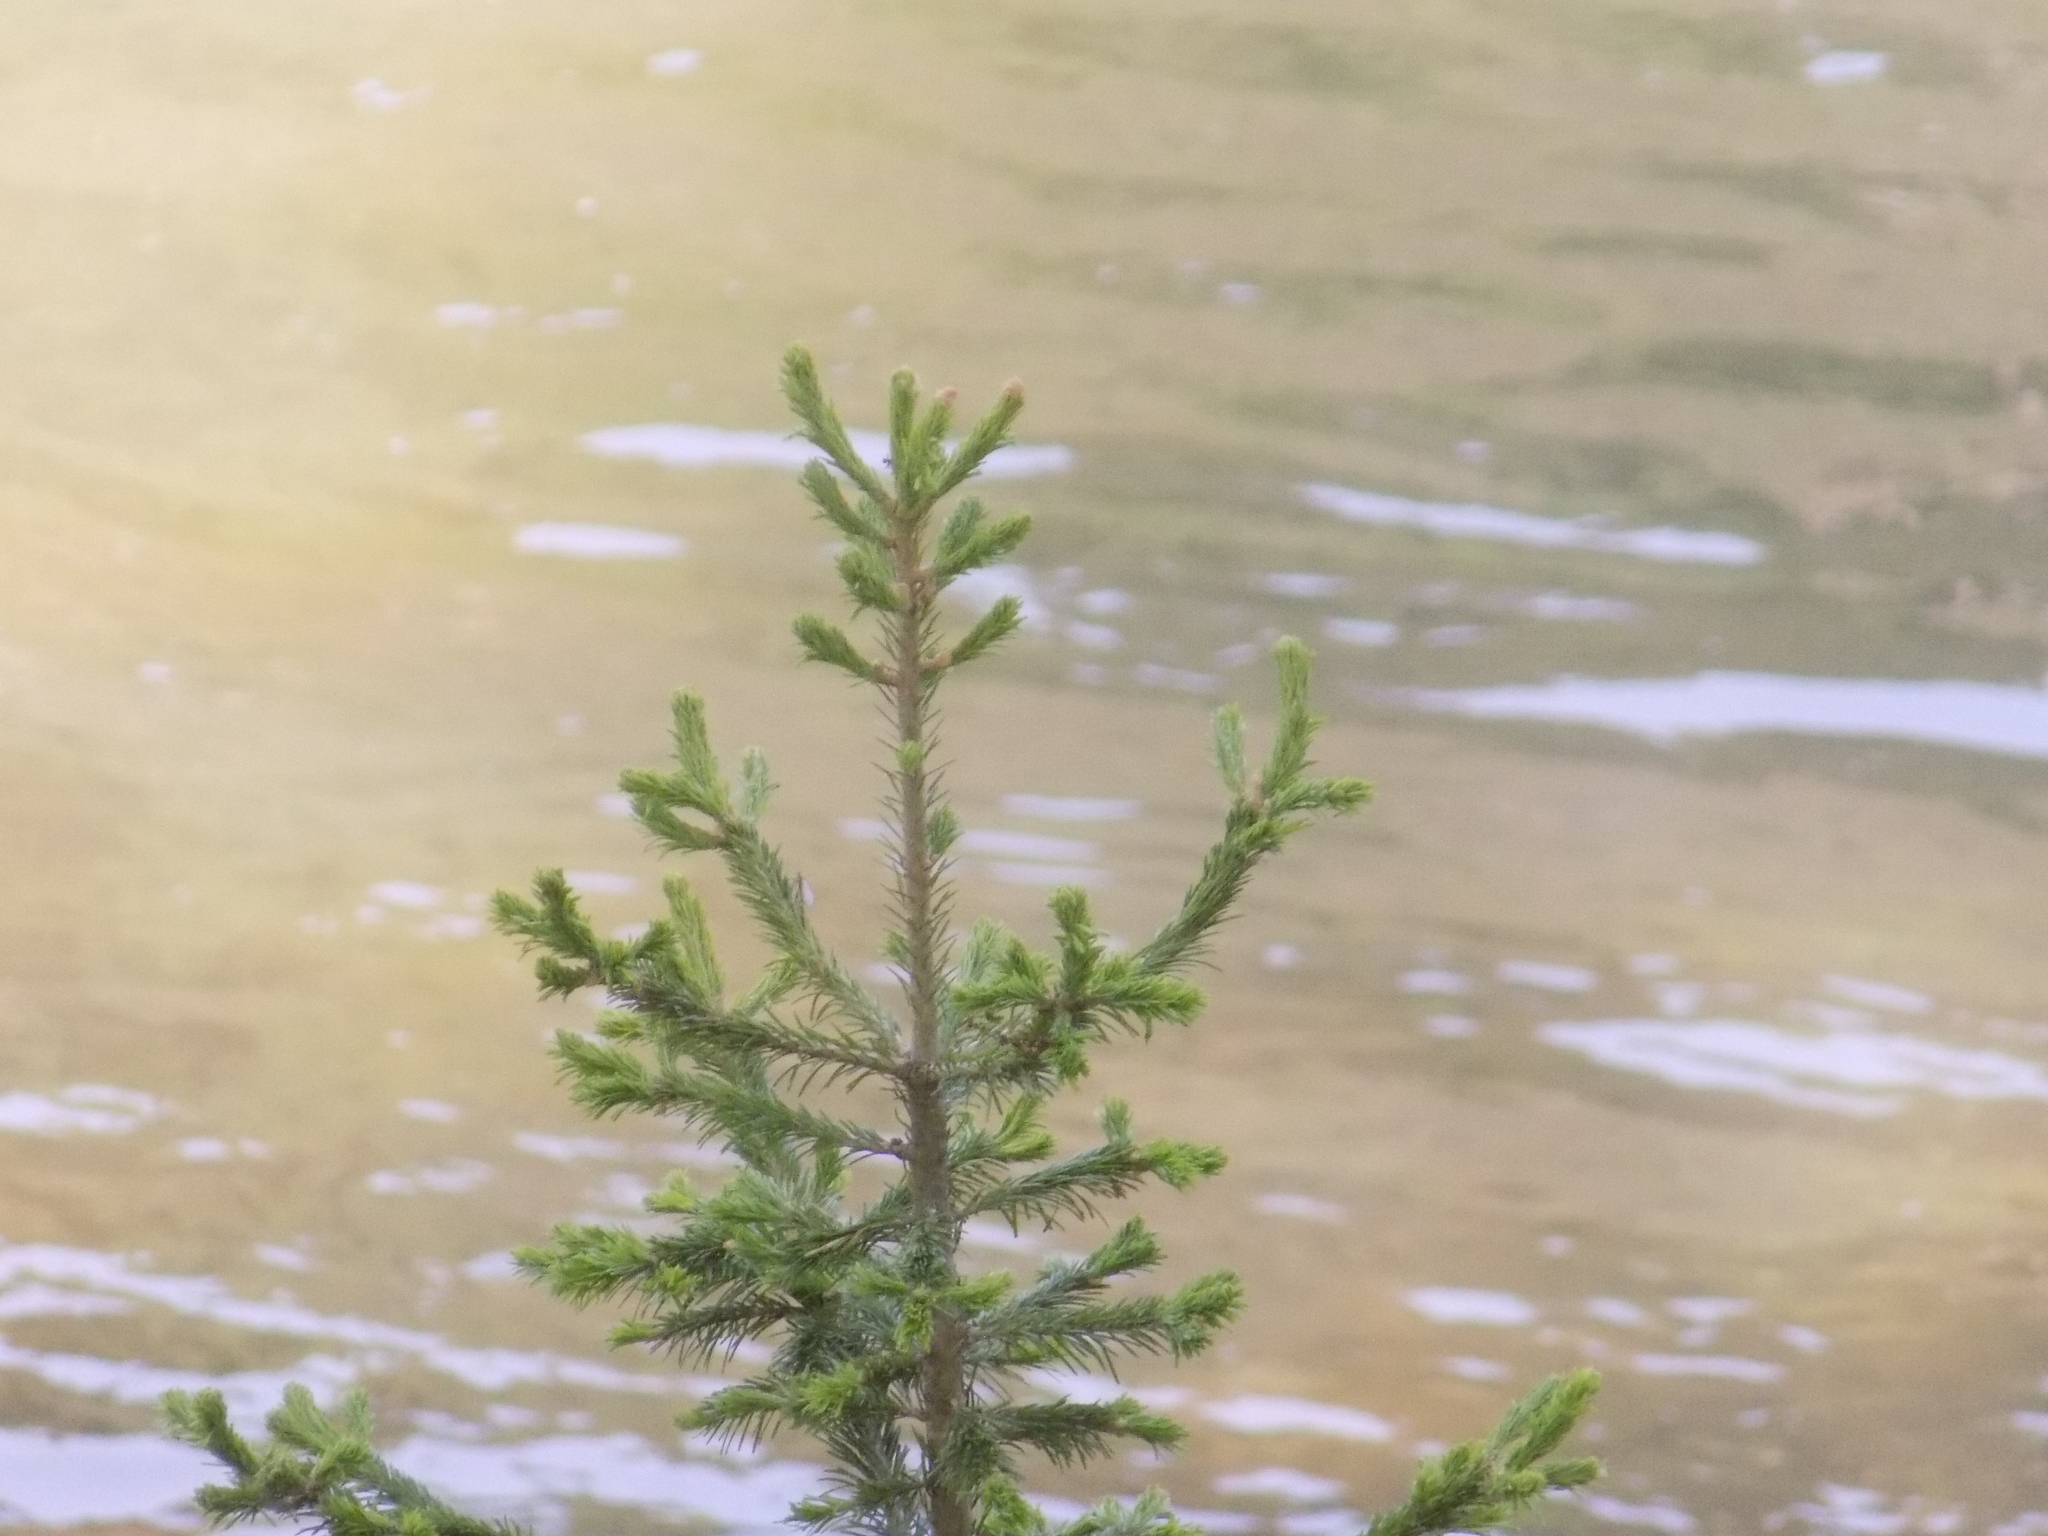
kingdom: Plantae
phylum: Tracheophyta
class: Pinopsida
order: Pinales
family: Pinaceae
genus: Abies
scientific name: Abies sibirica
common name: Siberian fir
